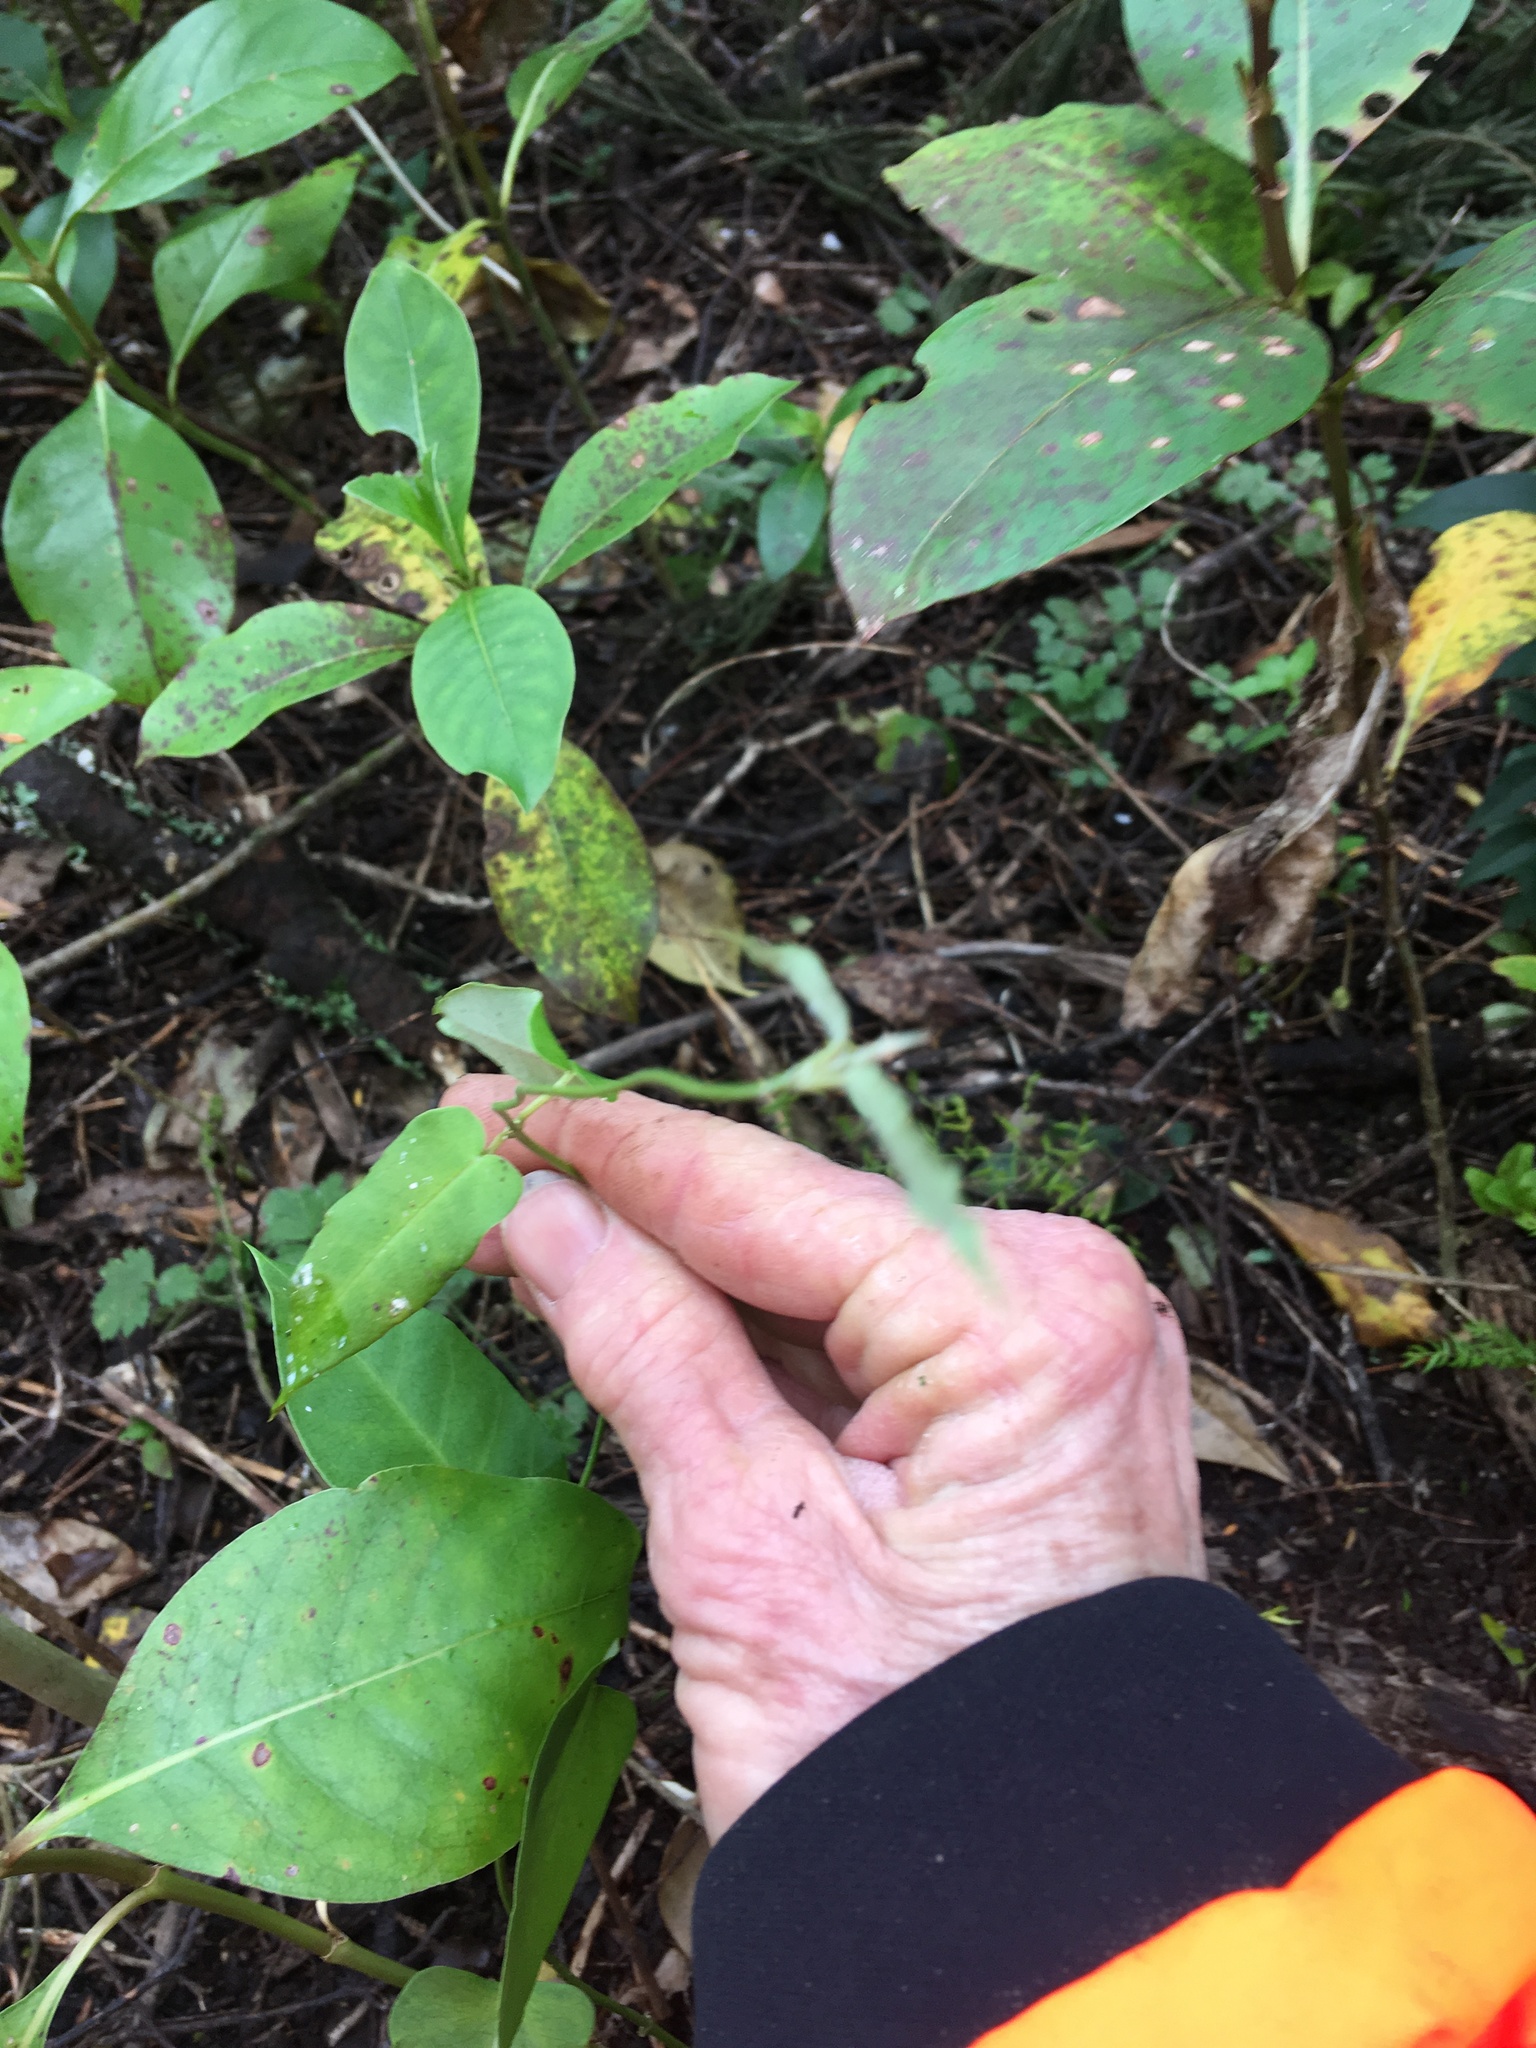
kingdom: Plantae
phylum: Tracheophyta
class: Magnoliopsida
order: Gentianales
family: Apocynaceae
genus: Araujia
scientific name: Araujia sericifera
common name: White bladderflower
